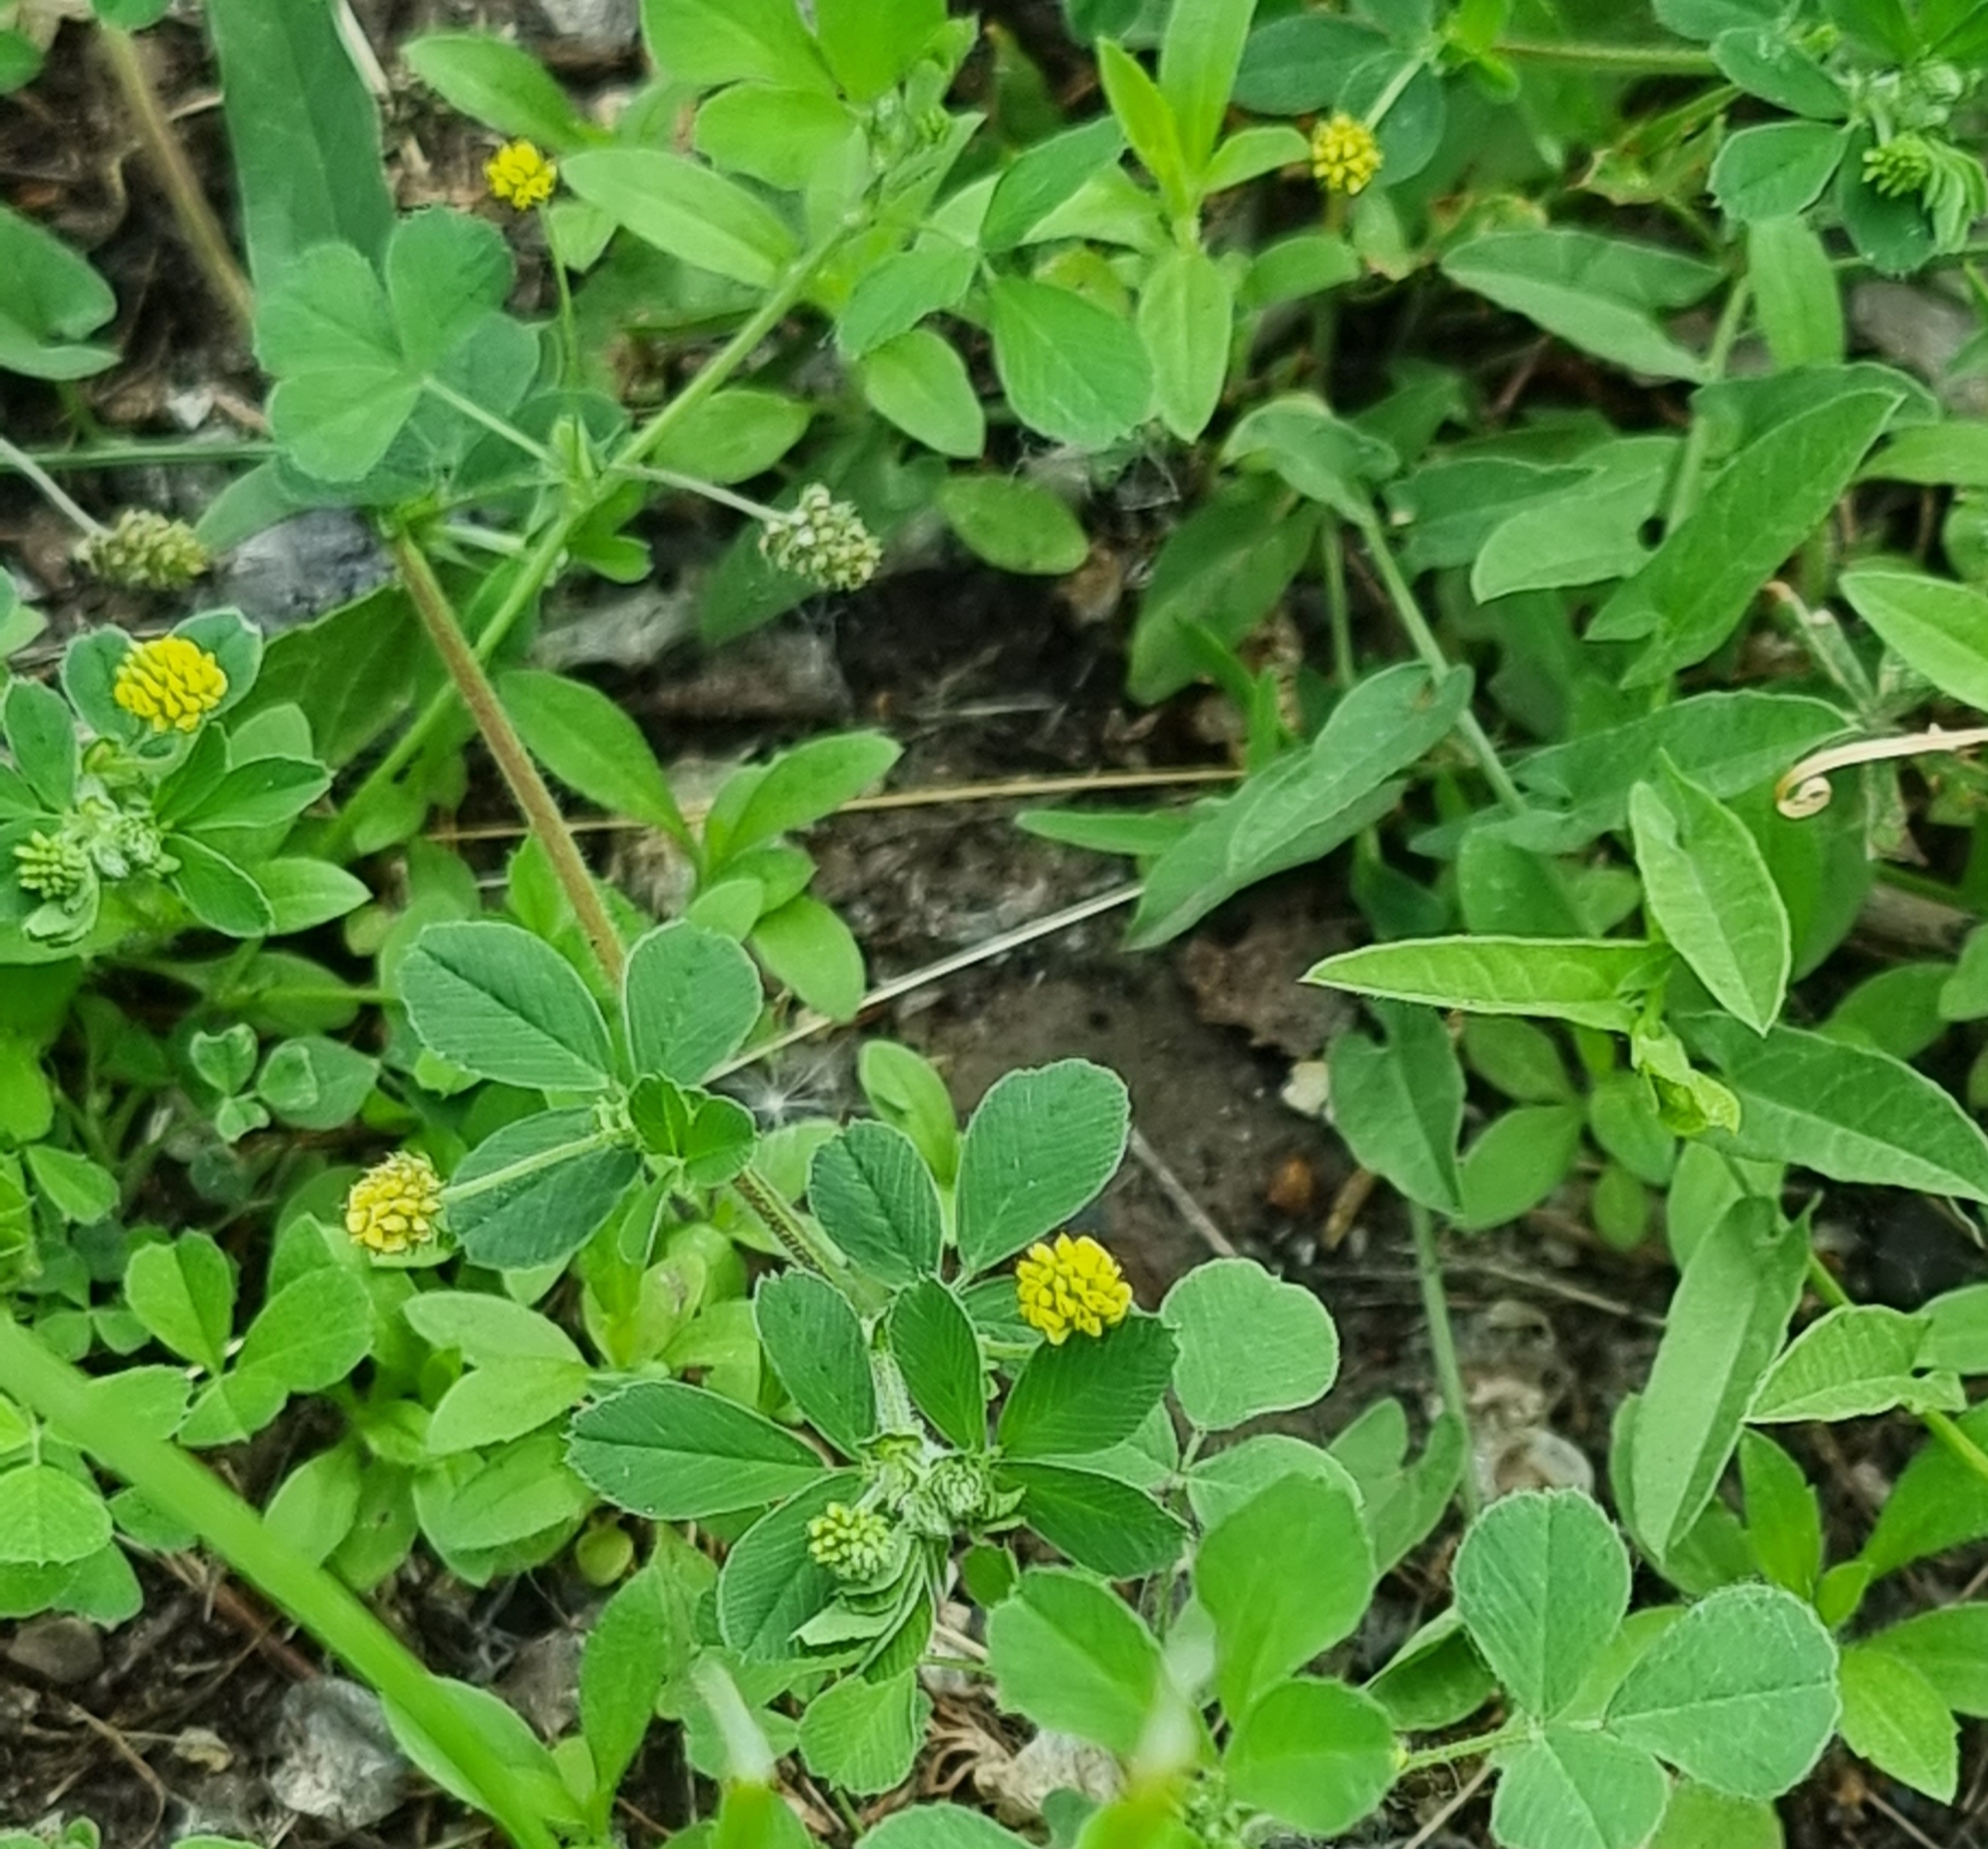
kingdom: Plantae
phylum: Tracheophyta
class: Magnoliopsida
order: Fabales
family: Fabaceae
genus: Medicago
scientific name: Medicago lupulina
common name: Black medick
